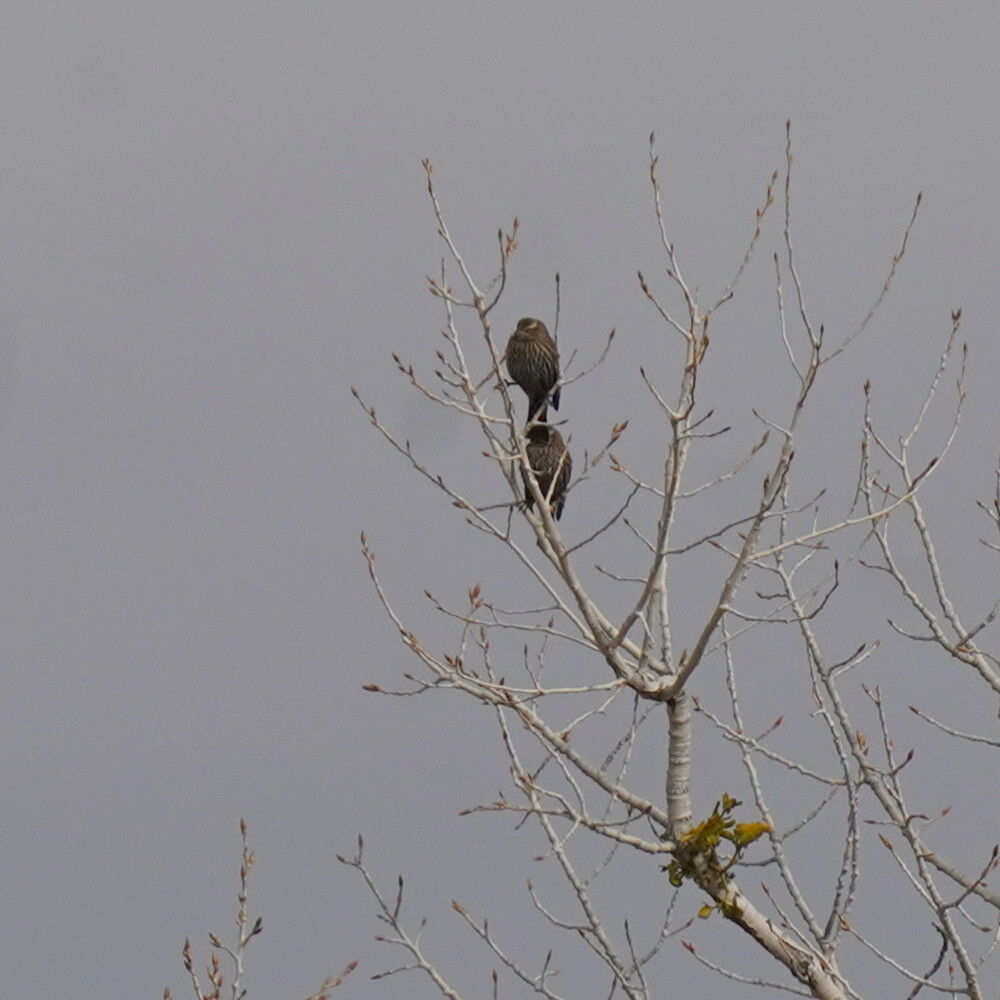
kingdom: Animalia
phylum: Chordata
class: Aves
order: Passeriformes
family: Icteridae
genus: Agelaius
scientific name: Agelaius phoeniceus
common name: Red-winged blackbird
